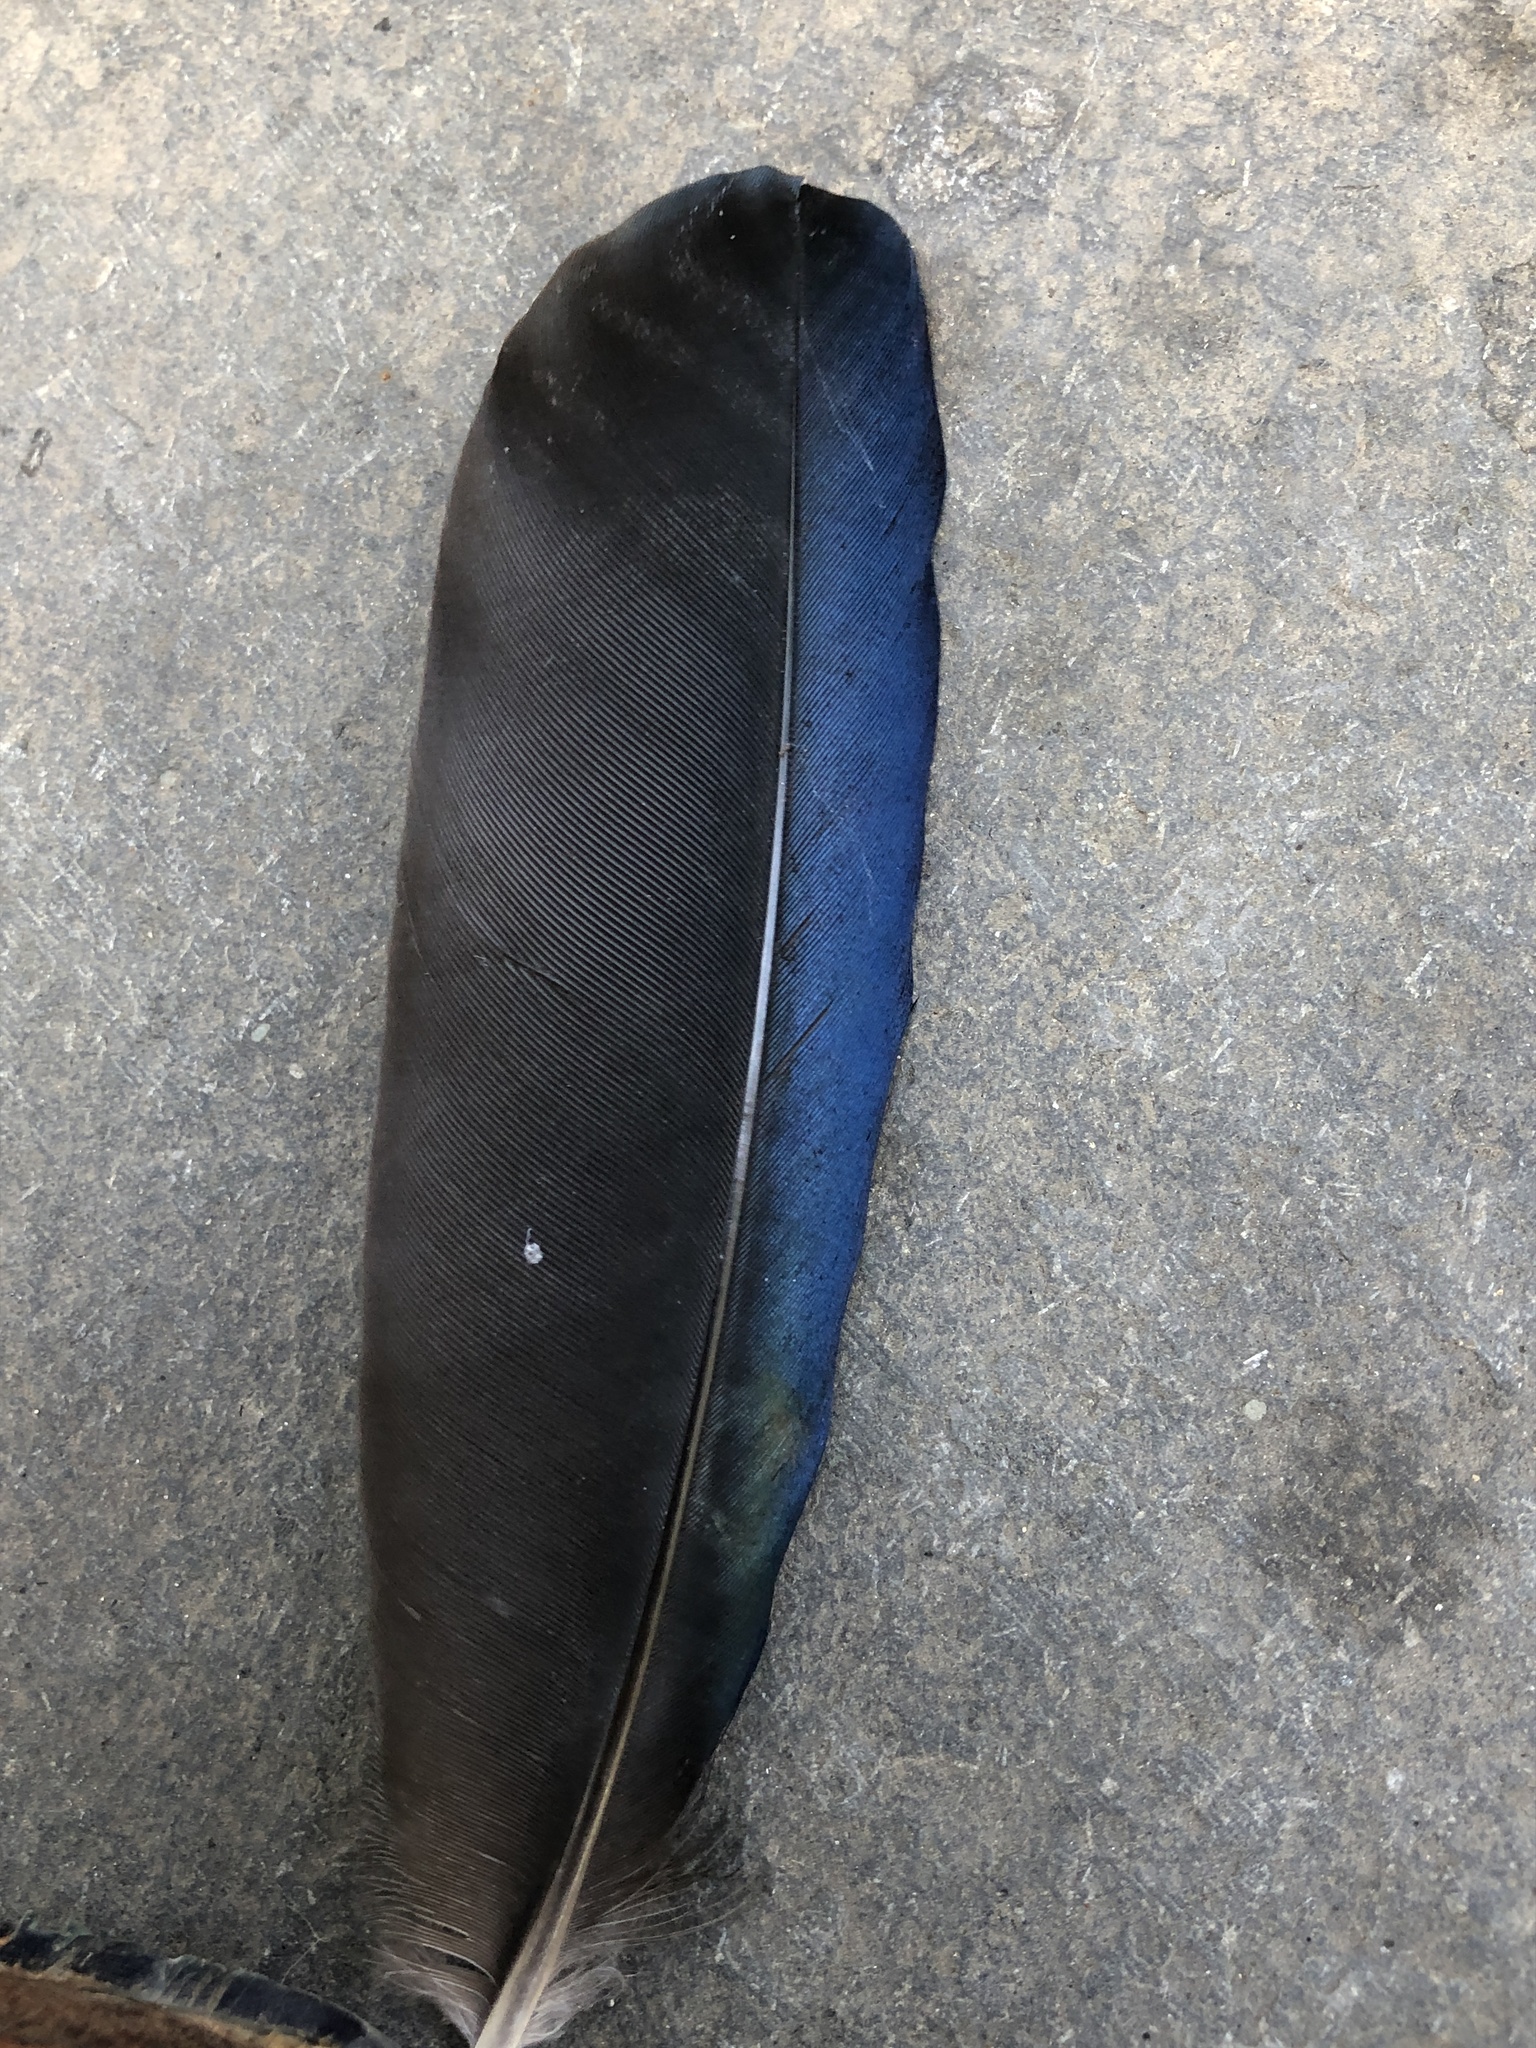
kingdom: Animalia
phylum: Chordata
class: Aves
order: Passeriformes
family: Corvidae
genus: Pica
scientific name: Pica serica
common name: Oriental magpie
